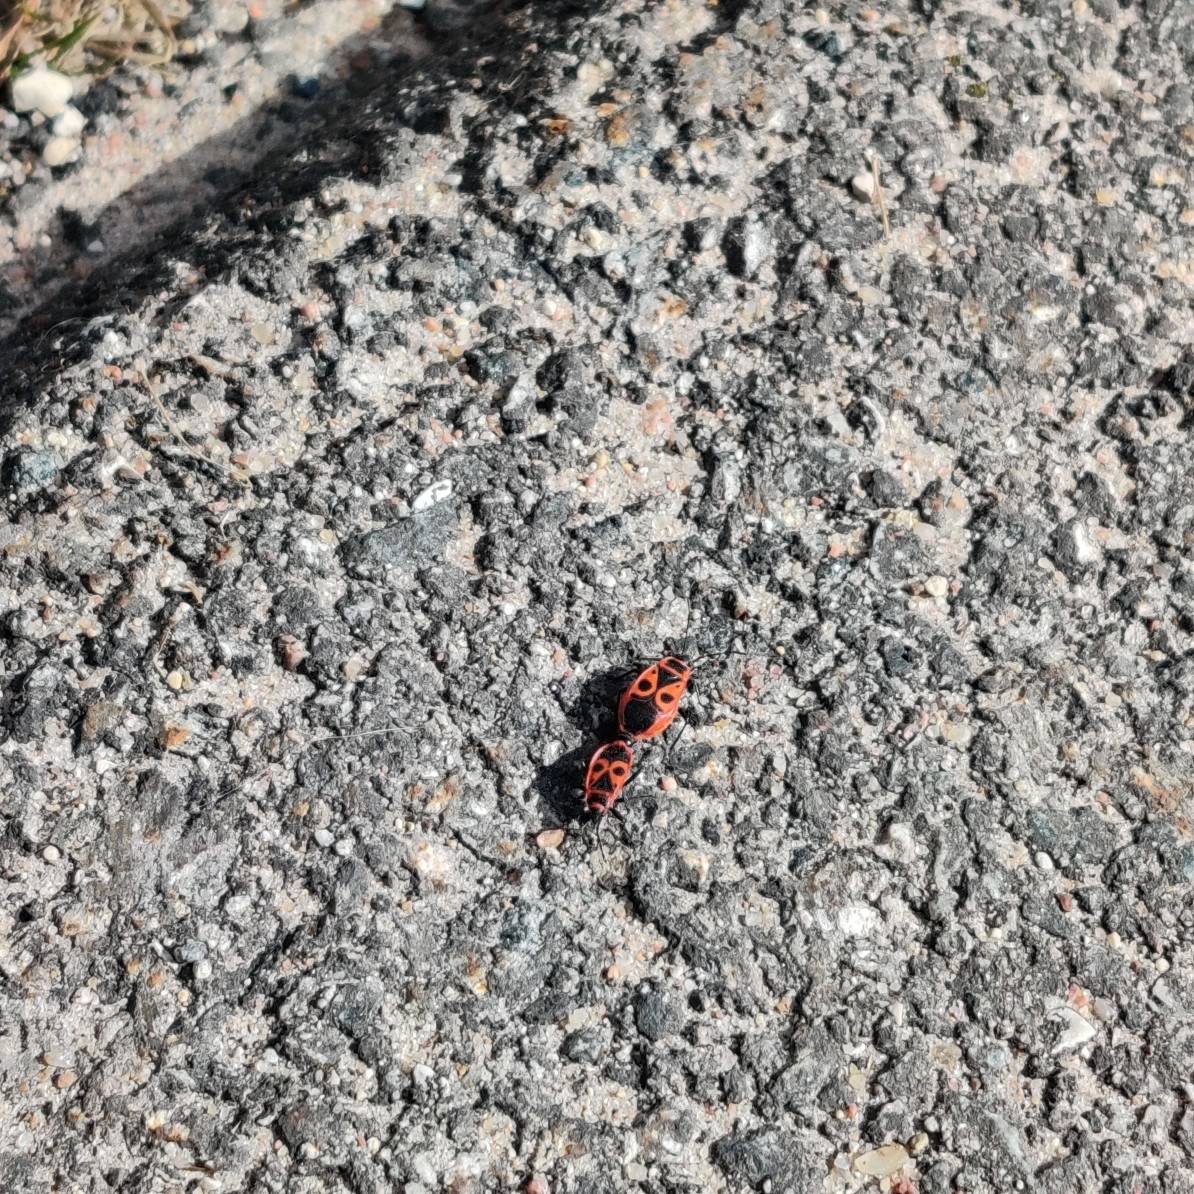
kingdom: Animalia
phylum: Arthropoda
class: Insecta
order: Hemiptera
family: Pyrrhocoridae
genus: Pyrrhocoris
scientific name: Pyrrhocoris apterus
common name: Firebug
